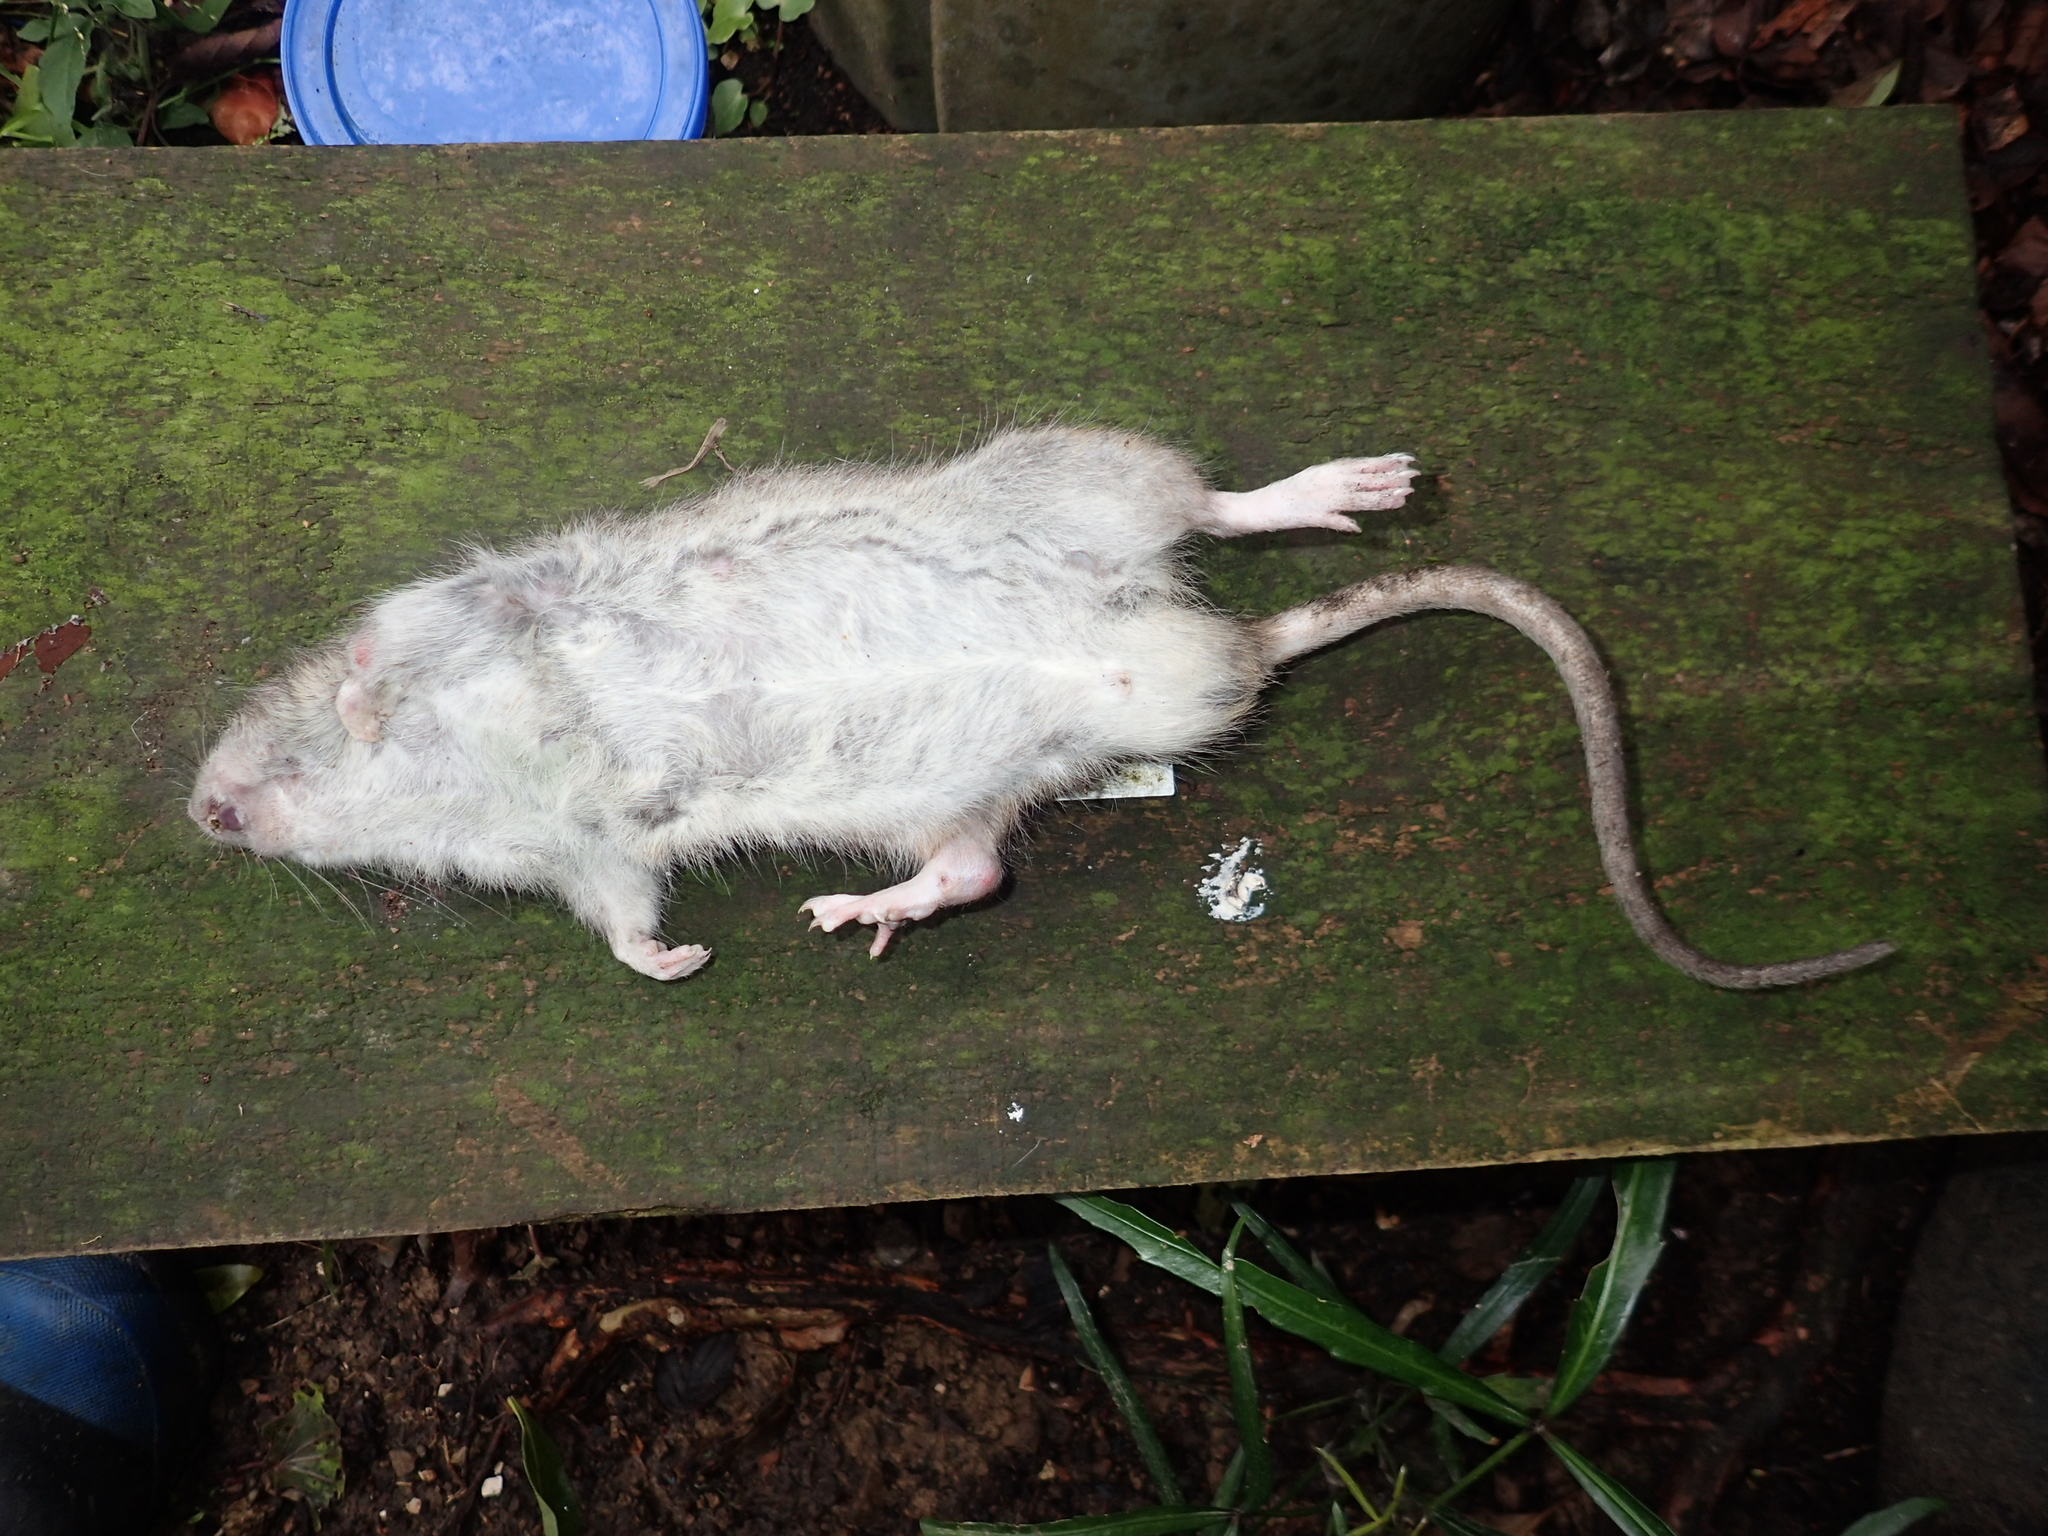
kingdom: Animalia
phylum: Chordata
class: Mammalia
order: Rodentia
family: Muridae
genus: Rattus
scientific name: Rattus norvegicus
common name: Brown rat
